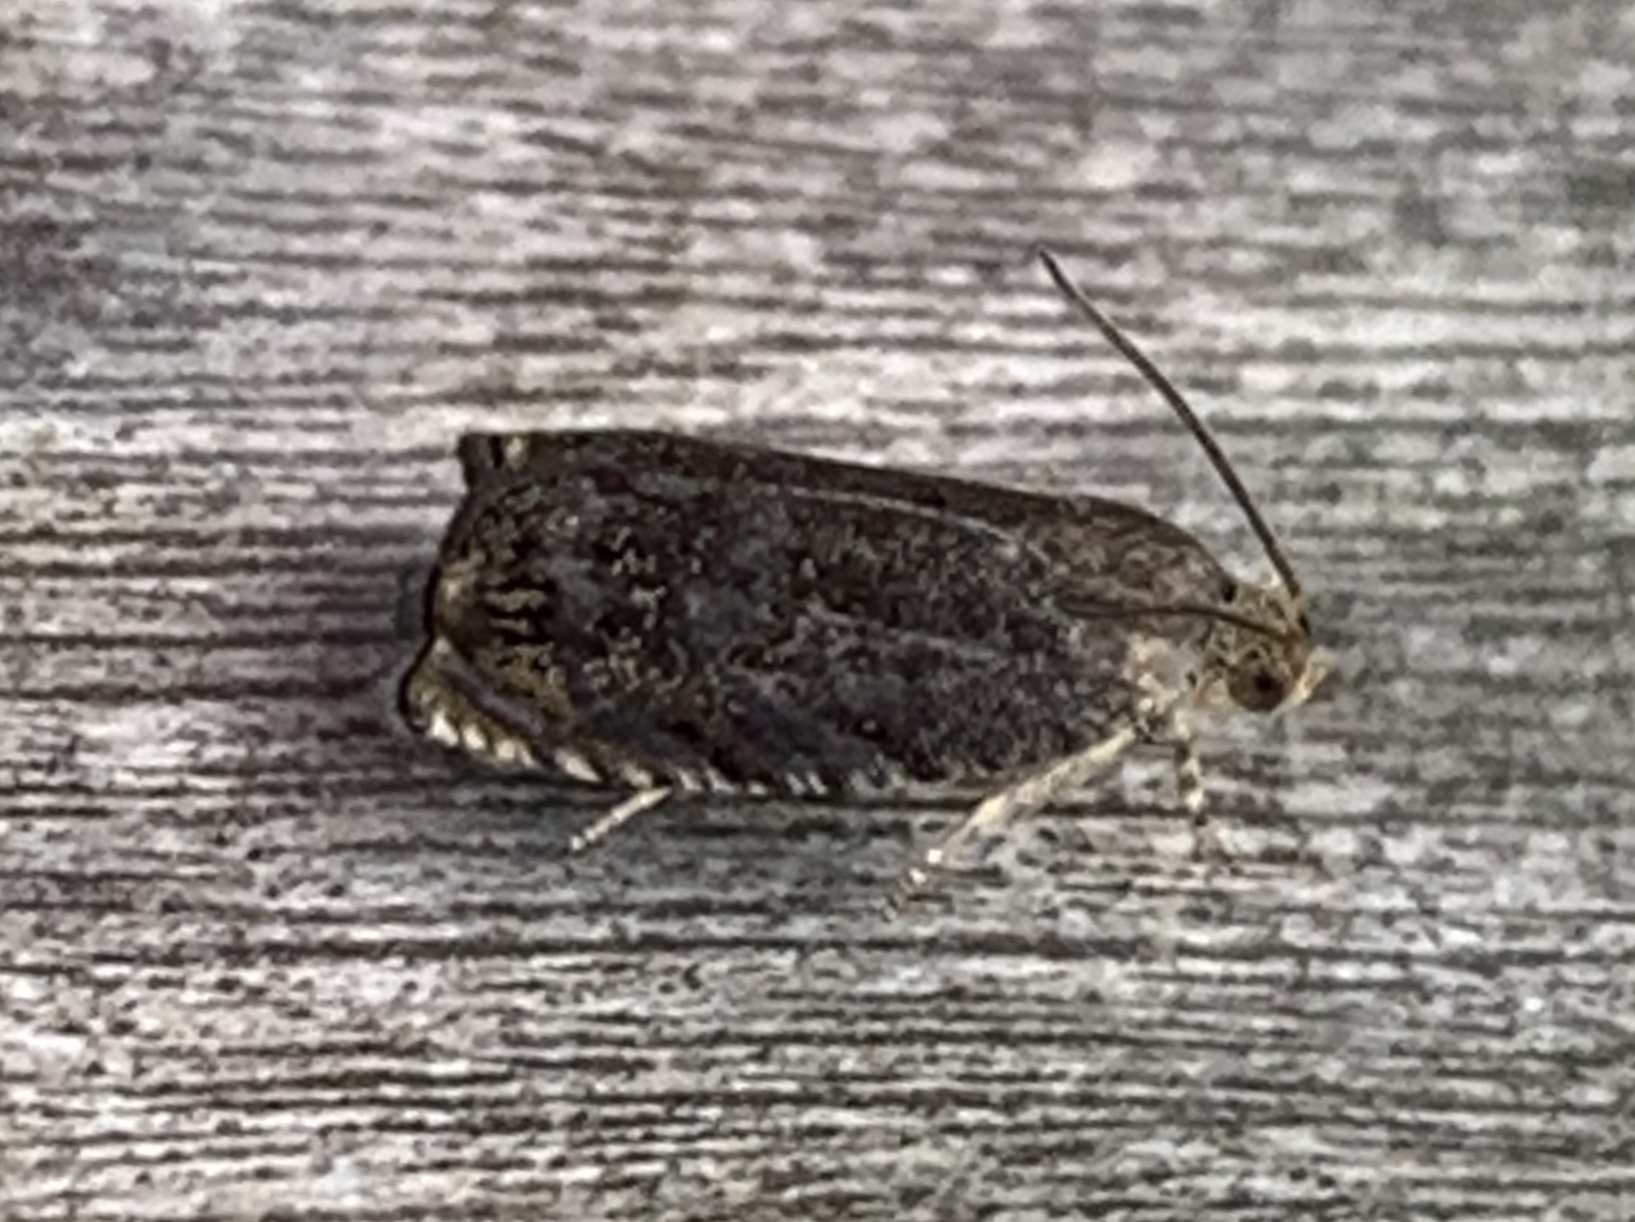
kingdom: Animalia
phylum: Arthropoda
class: Insecta
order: Lepidoptera
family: Tortricidae
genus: Cydia
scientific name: Cydia caryana
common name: Hickory shuckworm moth
